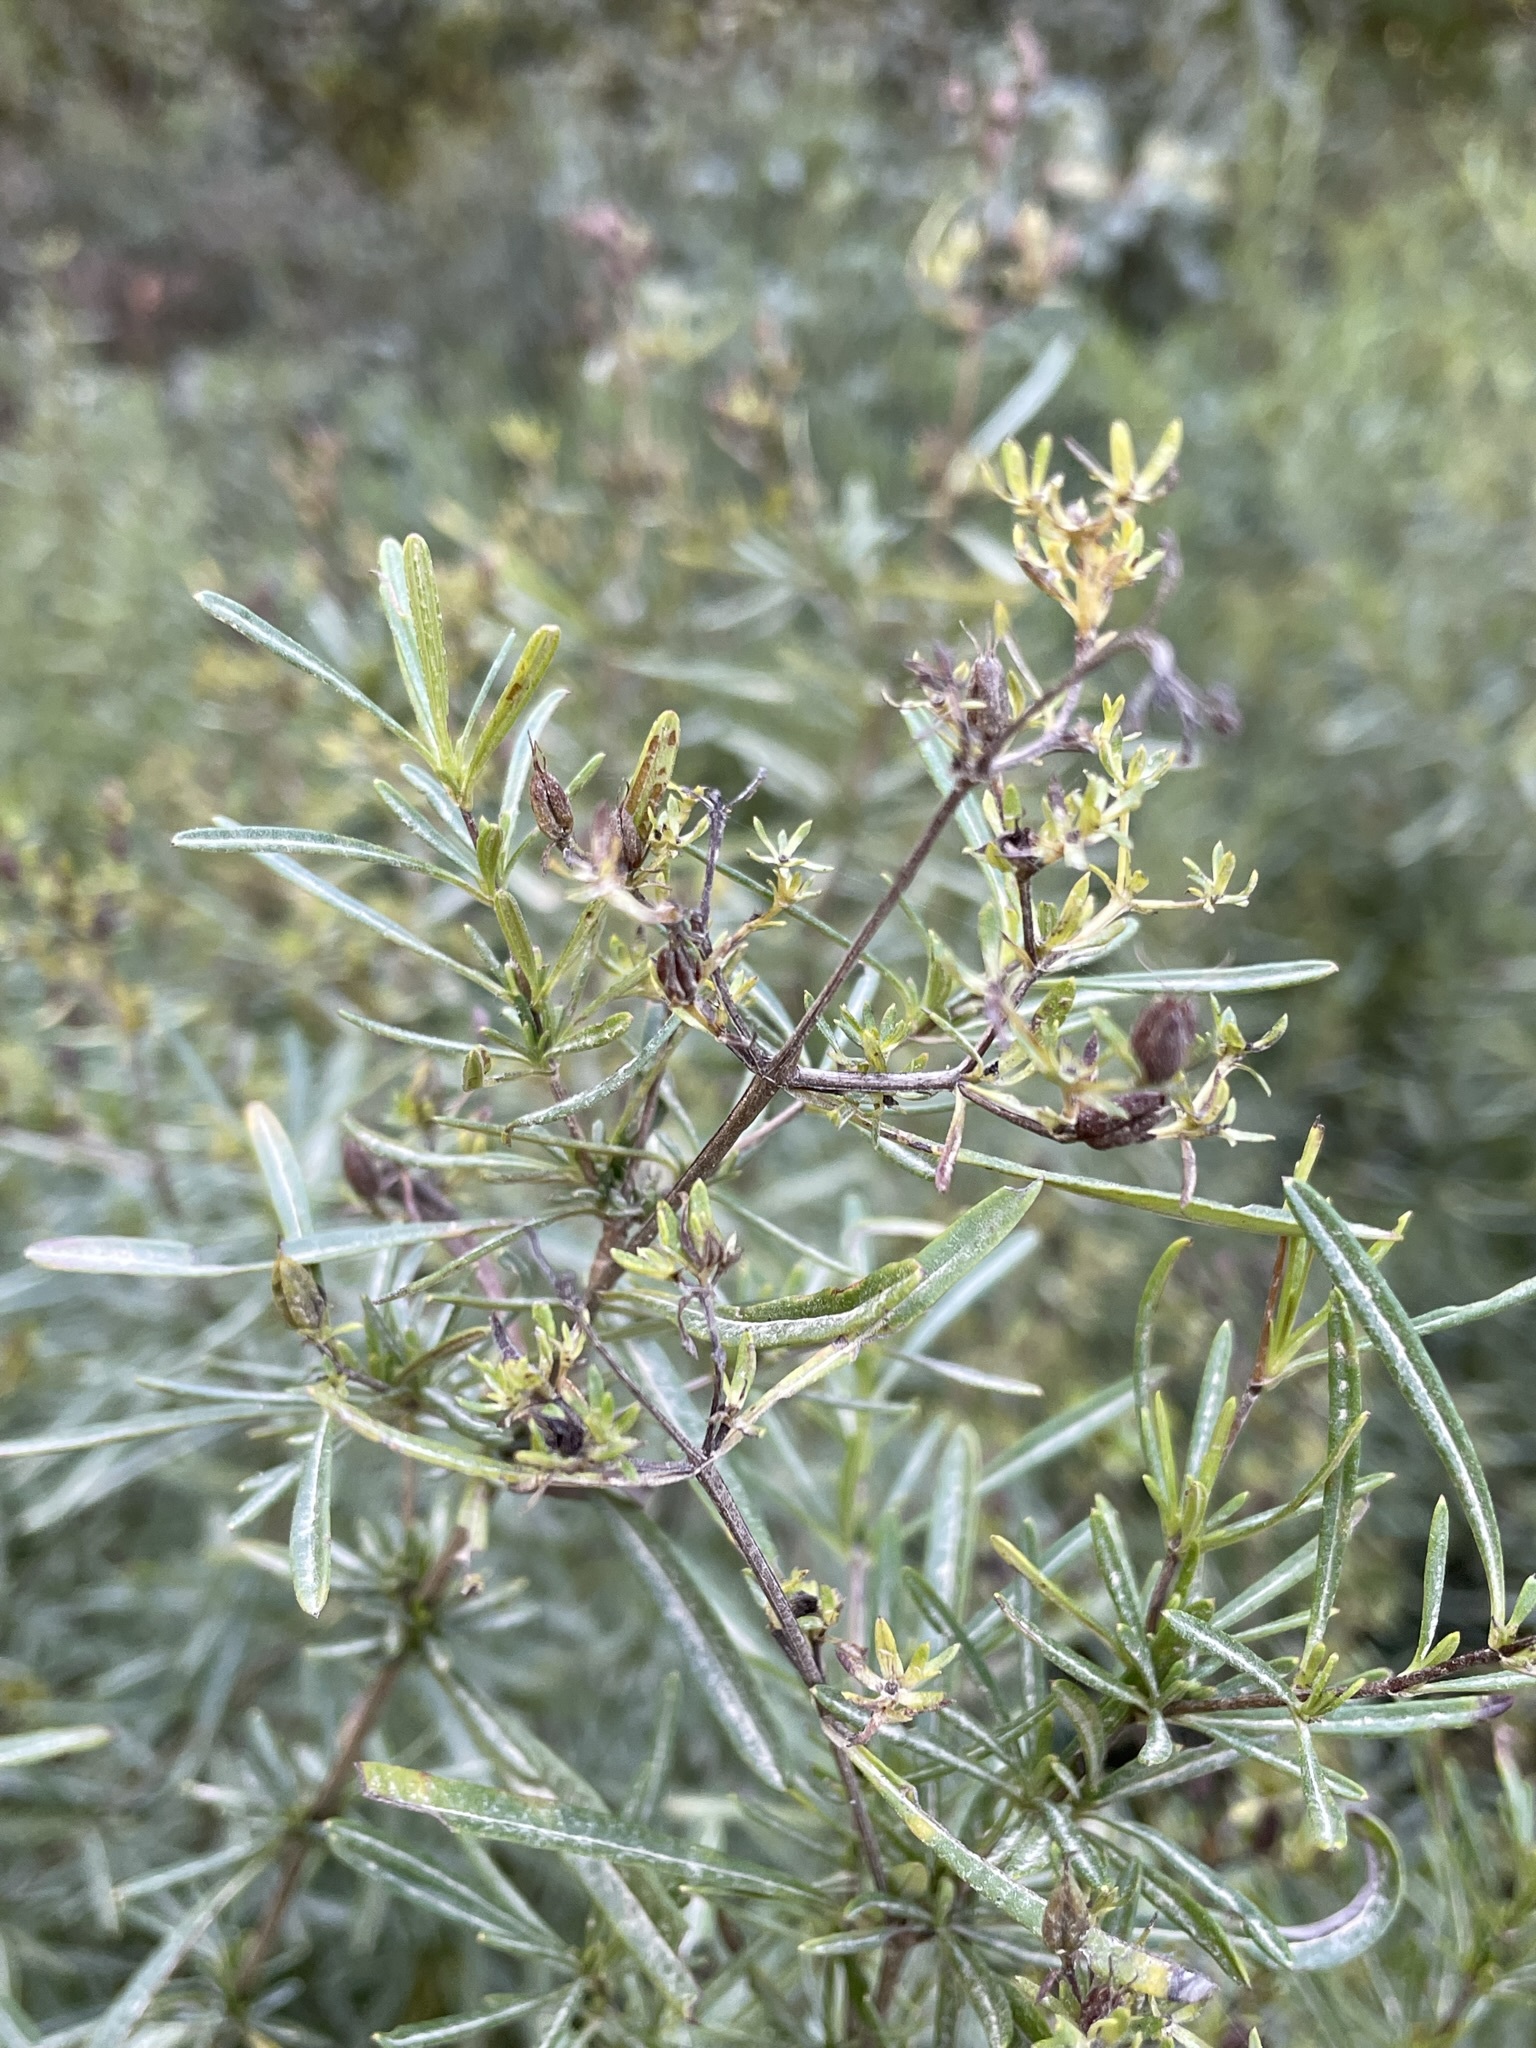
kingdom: Plantae
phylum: Tracheophyta
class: Magnoliopsida
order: Malpighiales
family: Hypericaceae
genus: Hypericum
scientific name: Hypericum densiflorum
